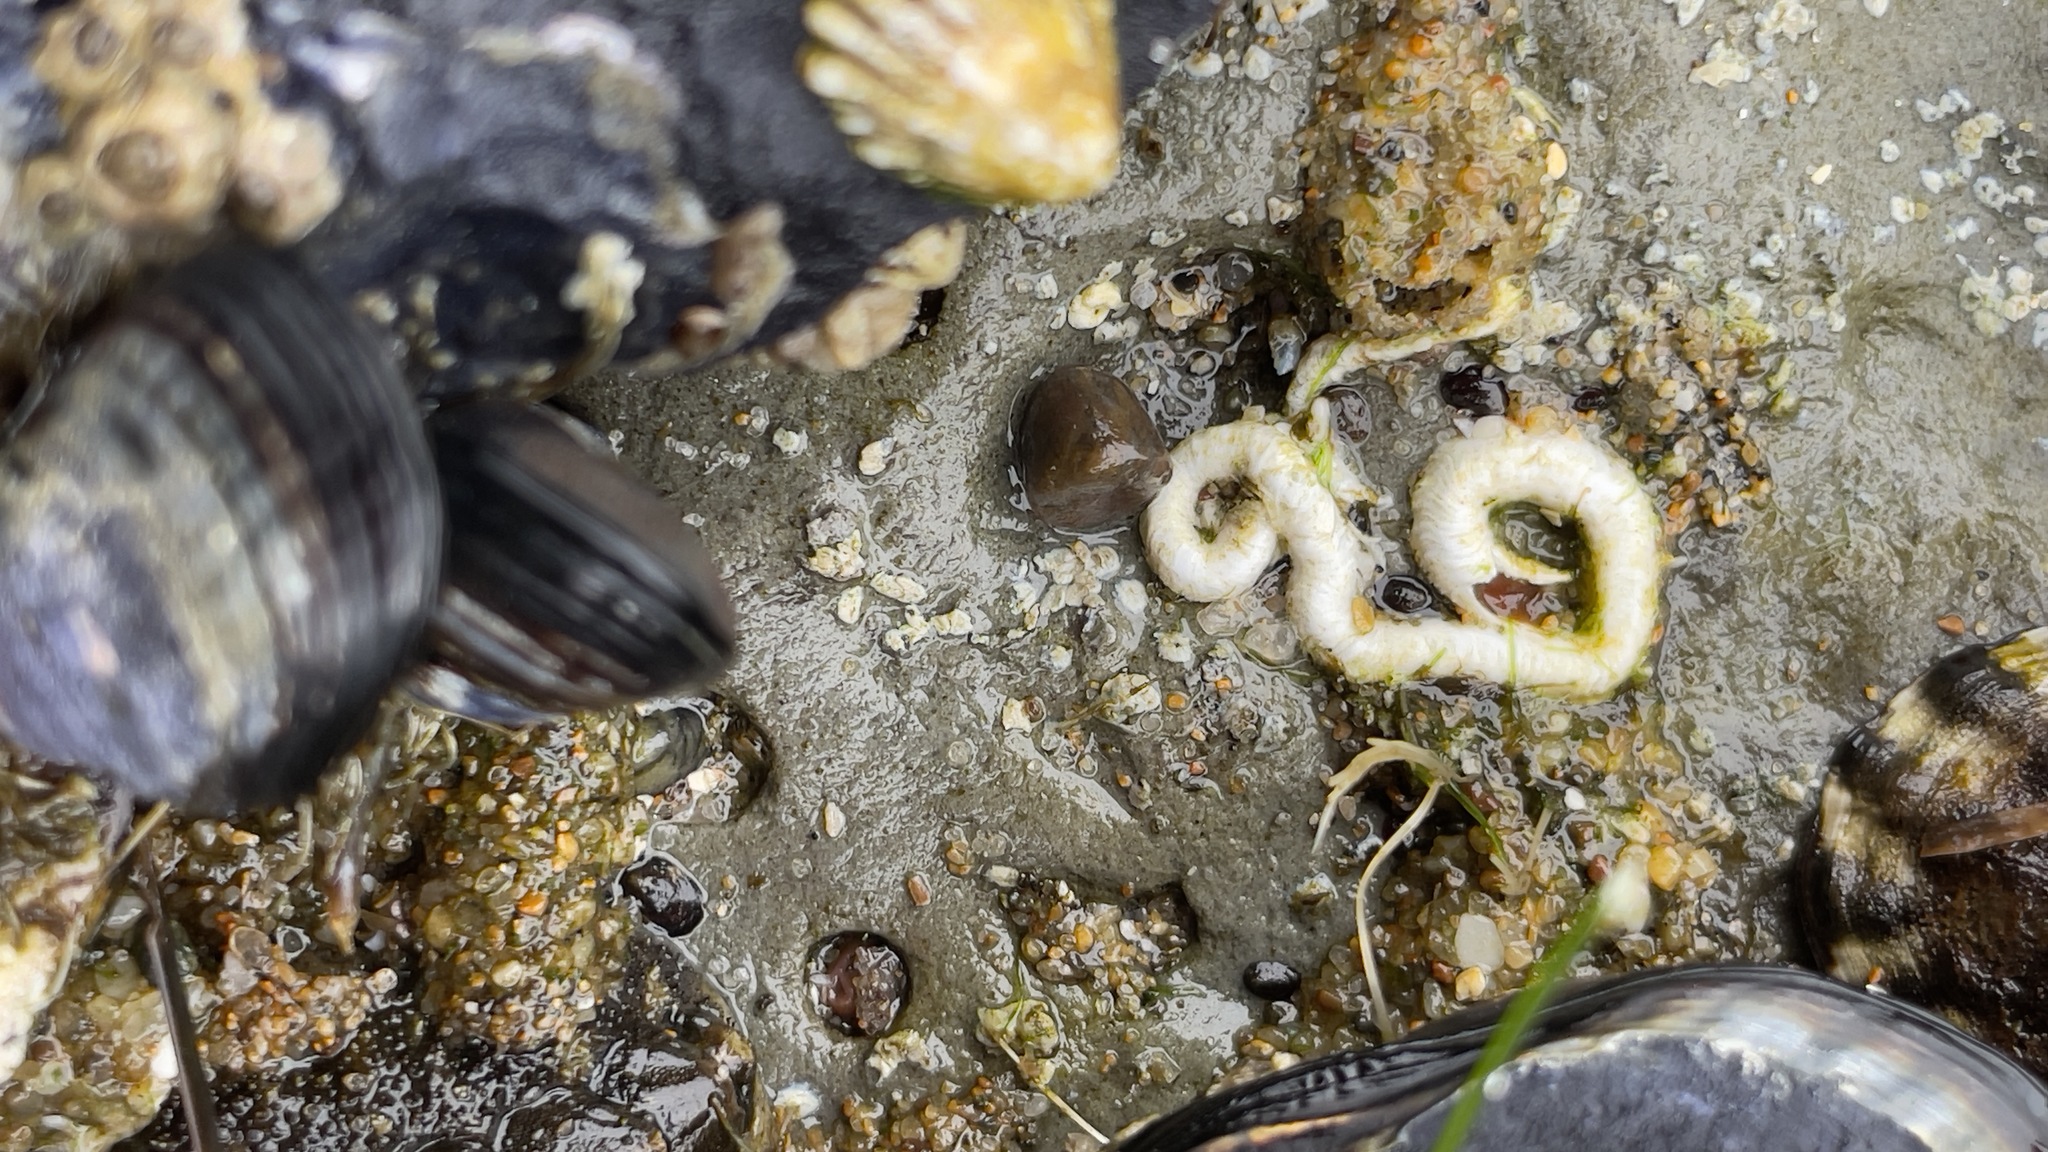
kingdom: Animalia
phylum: Annelida
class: Polychaeta
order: Sabellida
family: Serpulidae
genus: Serpula
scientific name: Serpula columbiana
